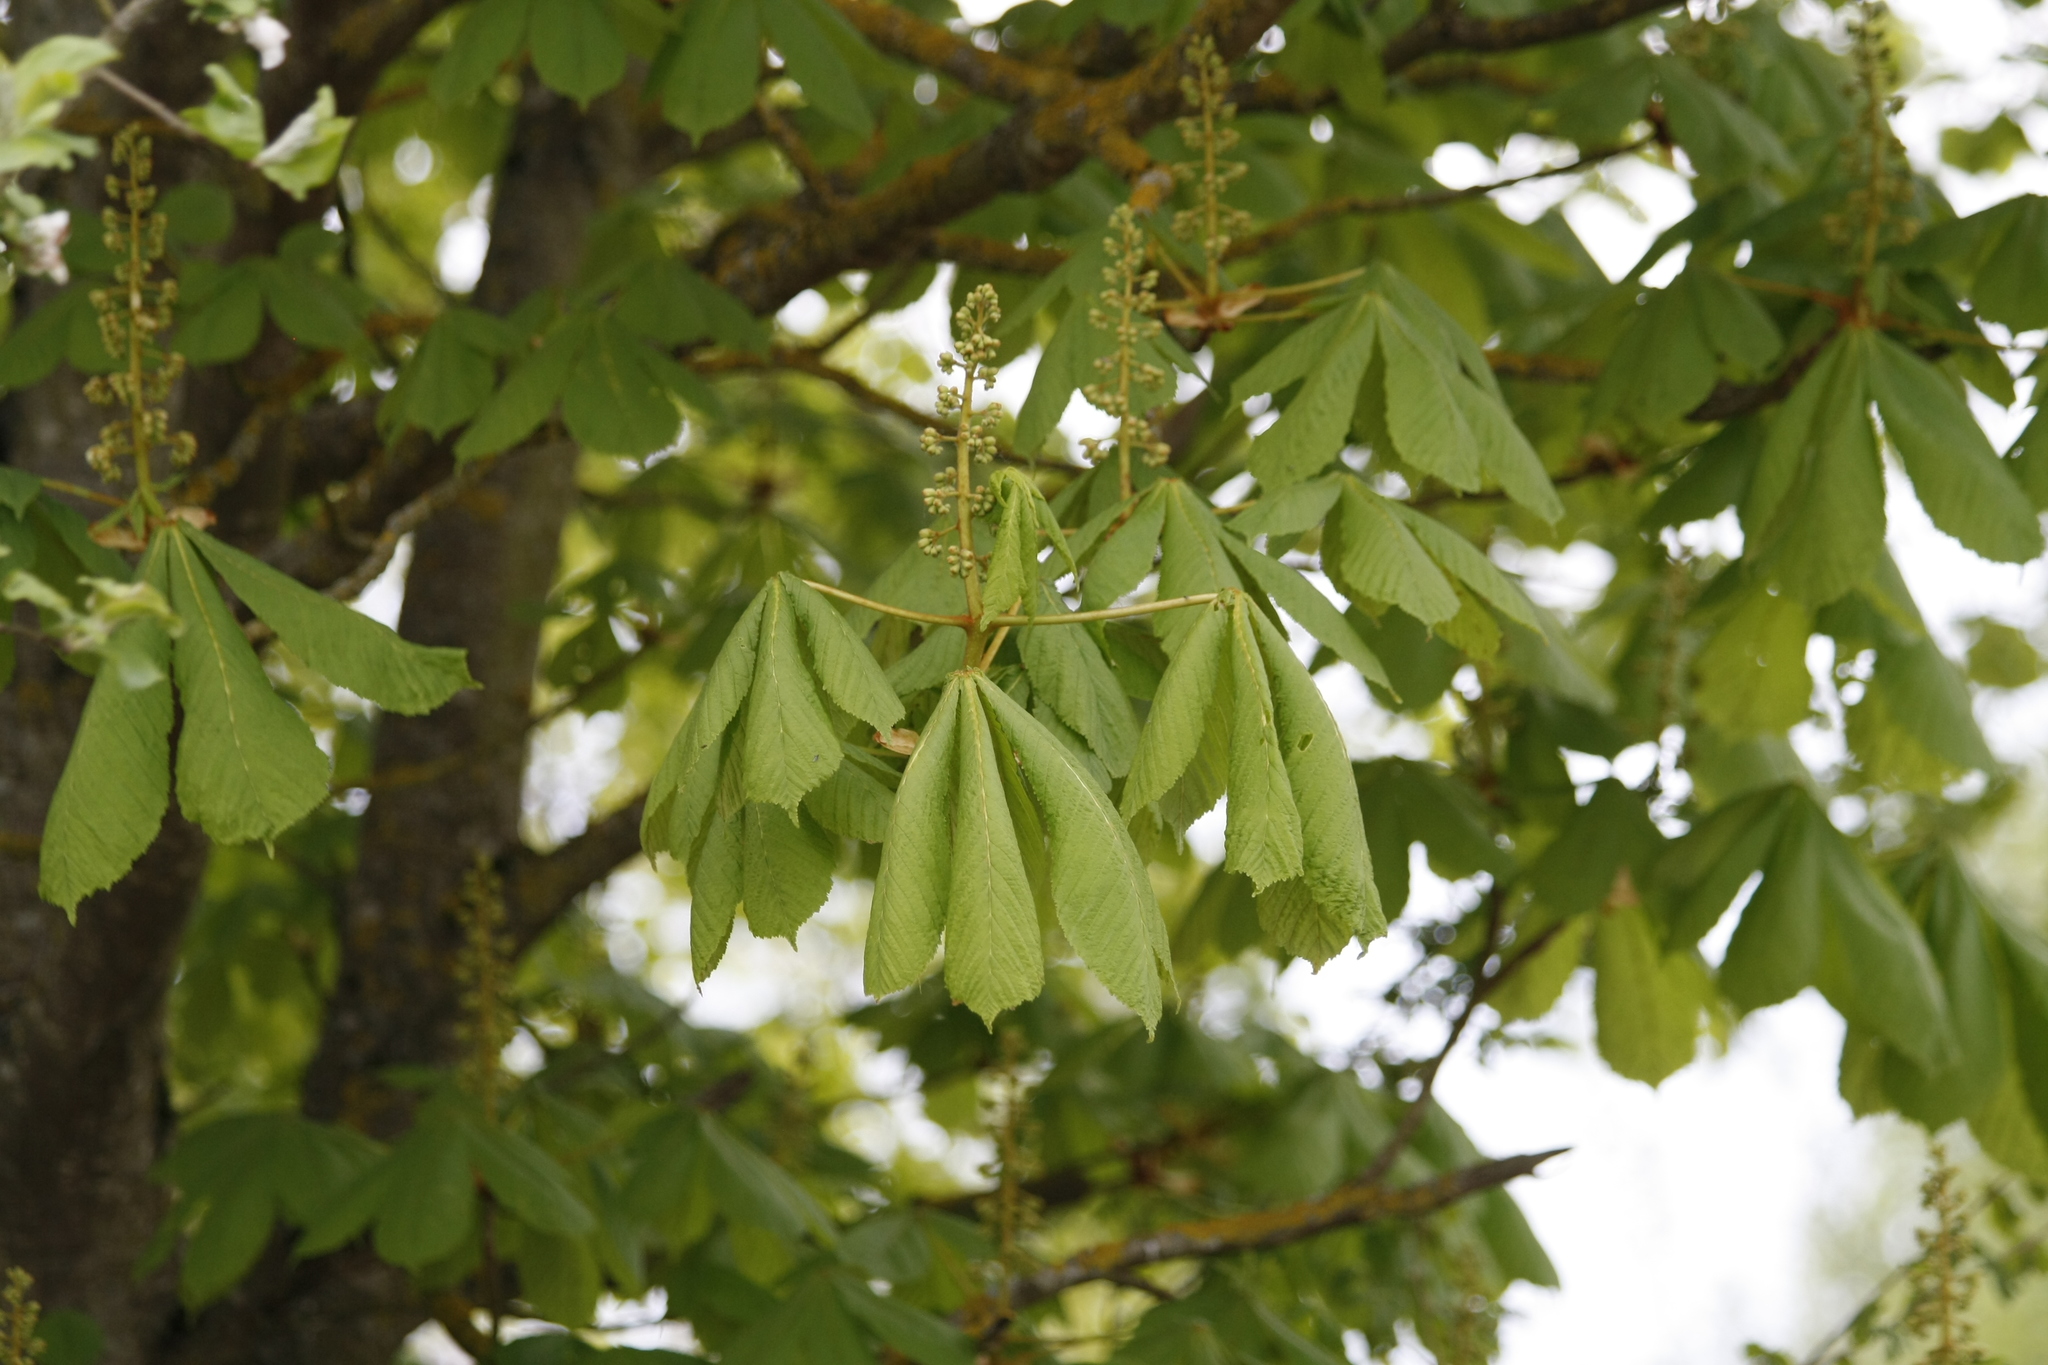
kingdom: Plantae
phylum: Tracheophyta
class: Magnoliopsida
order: Sapindales
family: Sapindaceae
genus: Aesculus
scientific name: Aesculus hippocastanum
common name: Horse-chestnut
